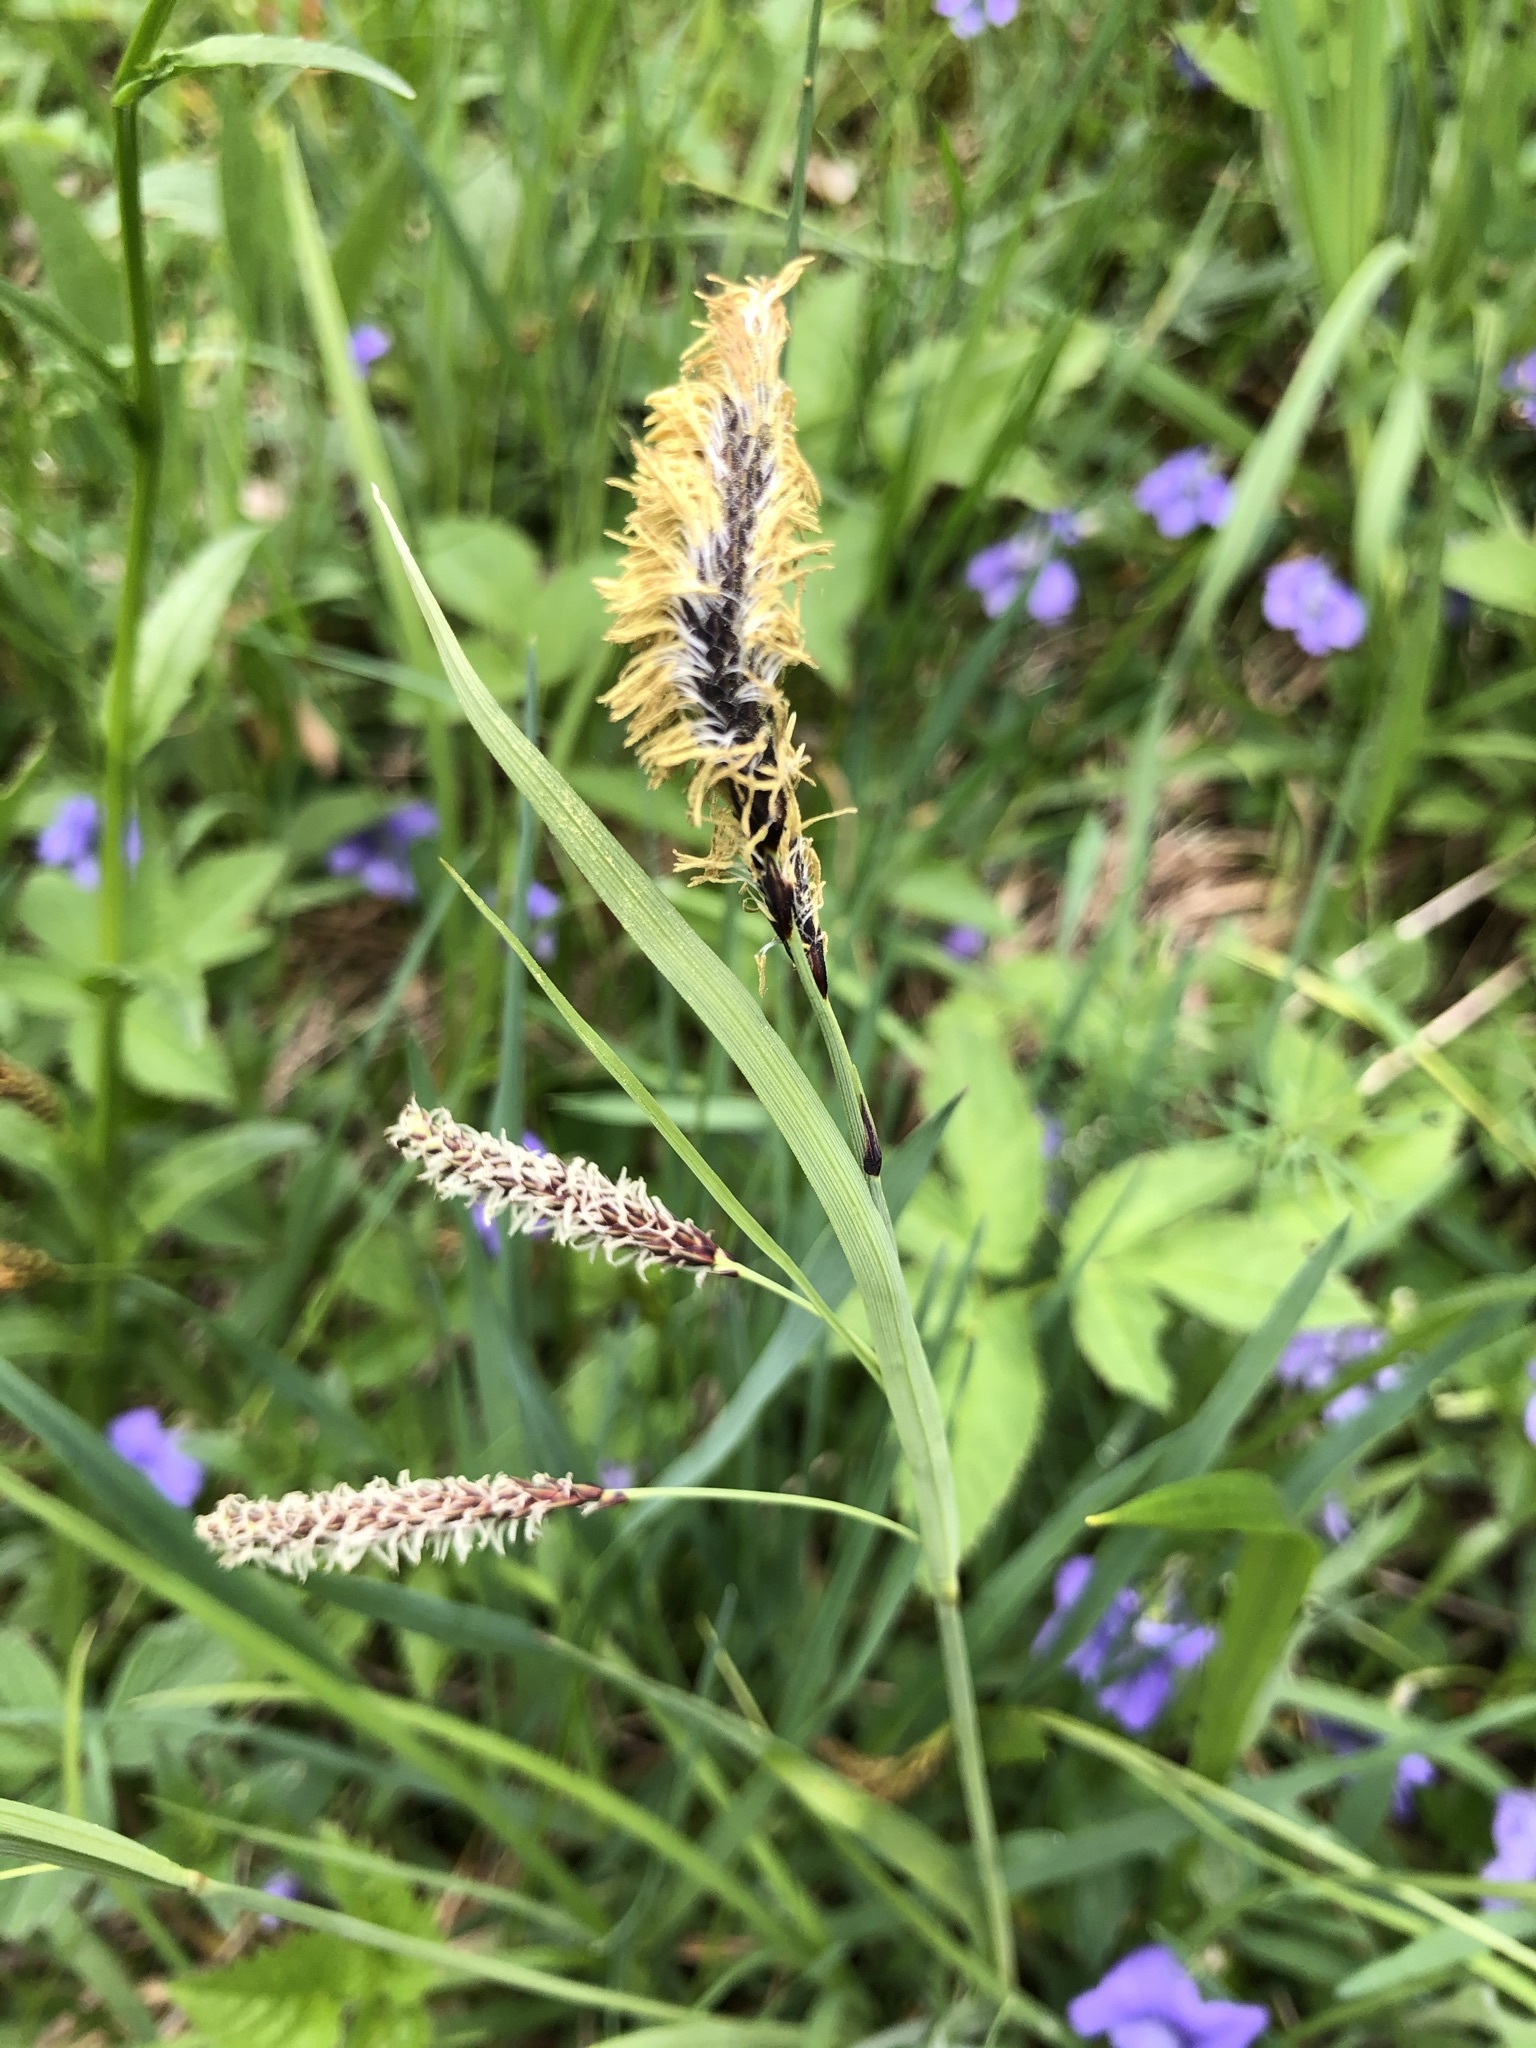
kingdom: Plantae
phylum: Tracheophyta
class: Liliopsida
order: Poales
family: Cyperaceae
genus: Carex
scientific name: Carex flacca
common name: Glaucous sedge
